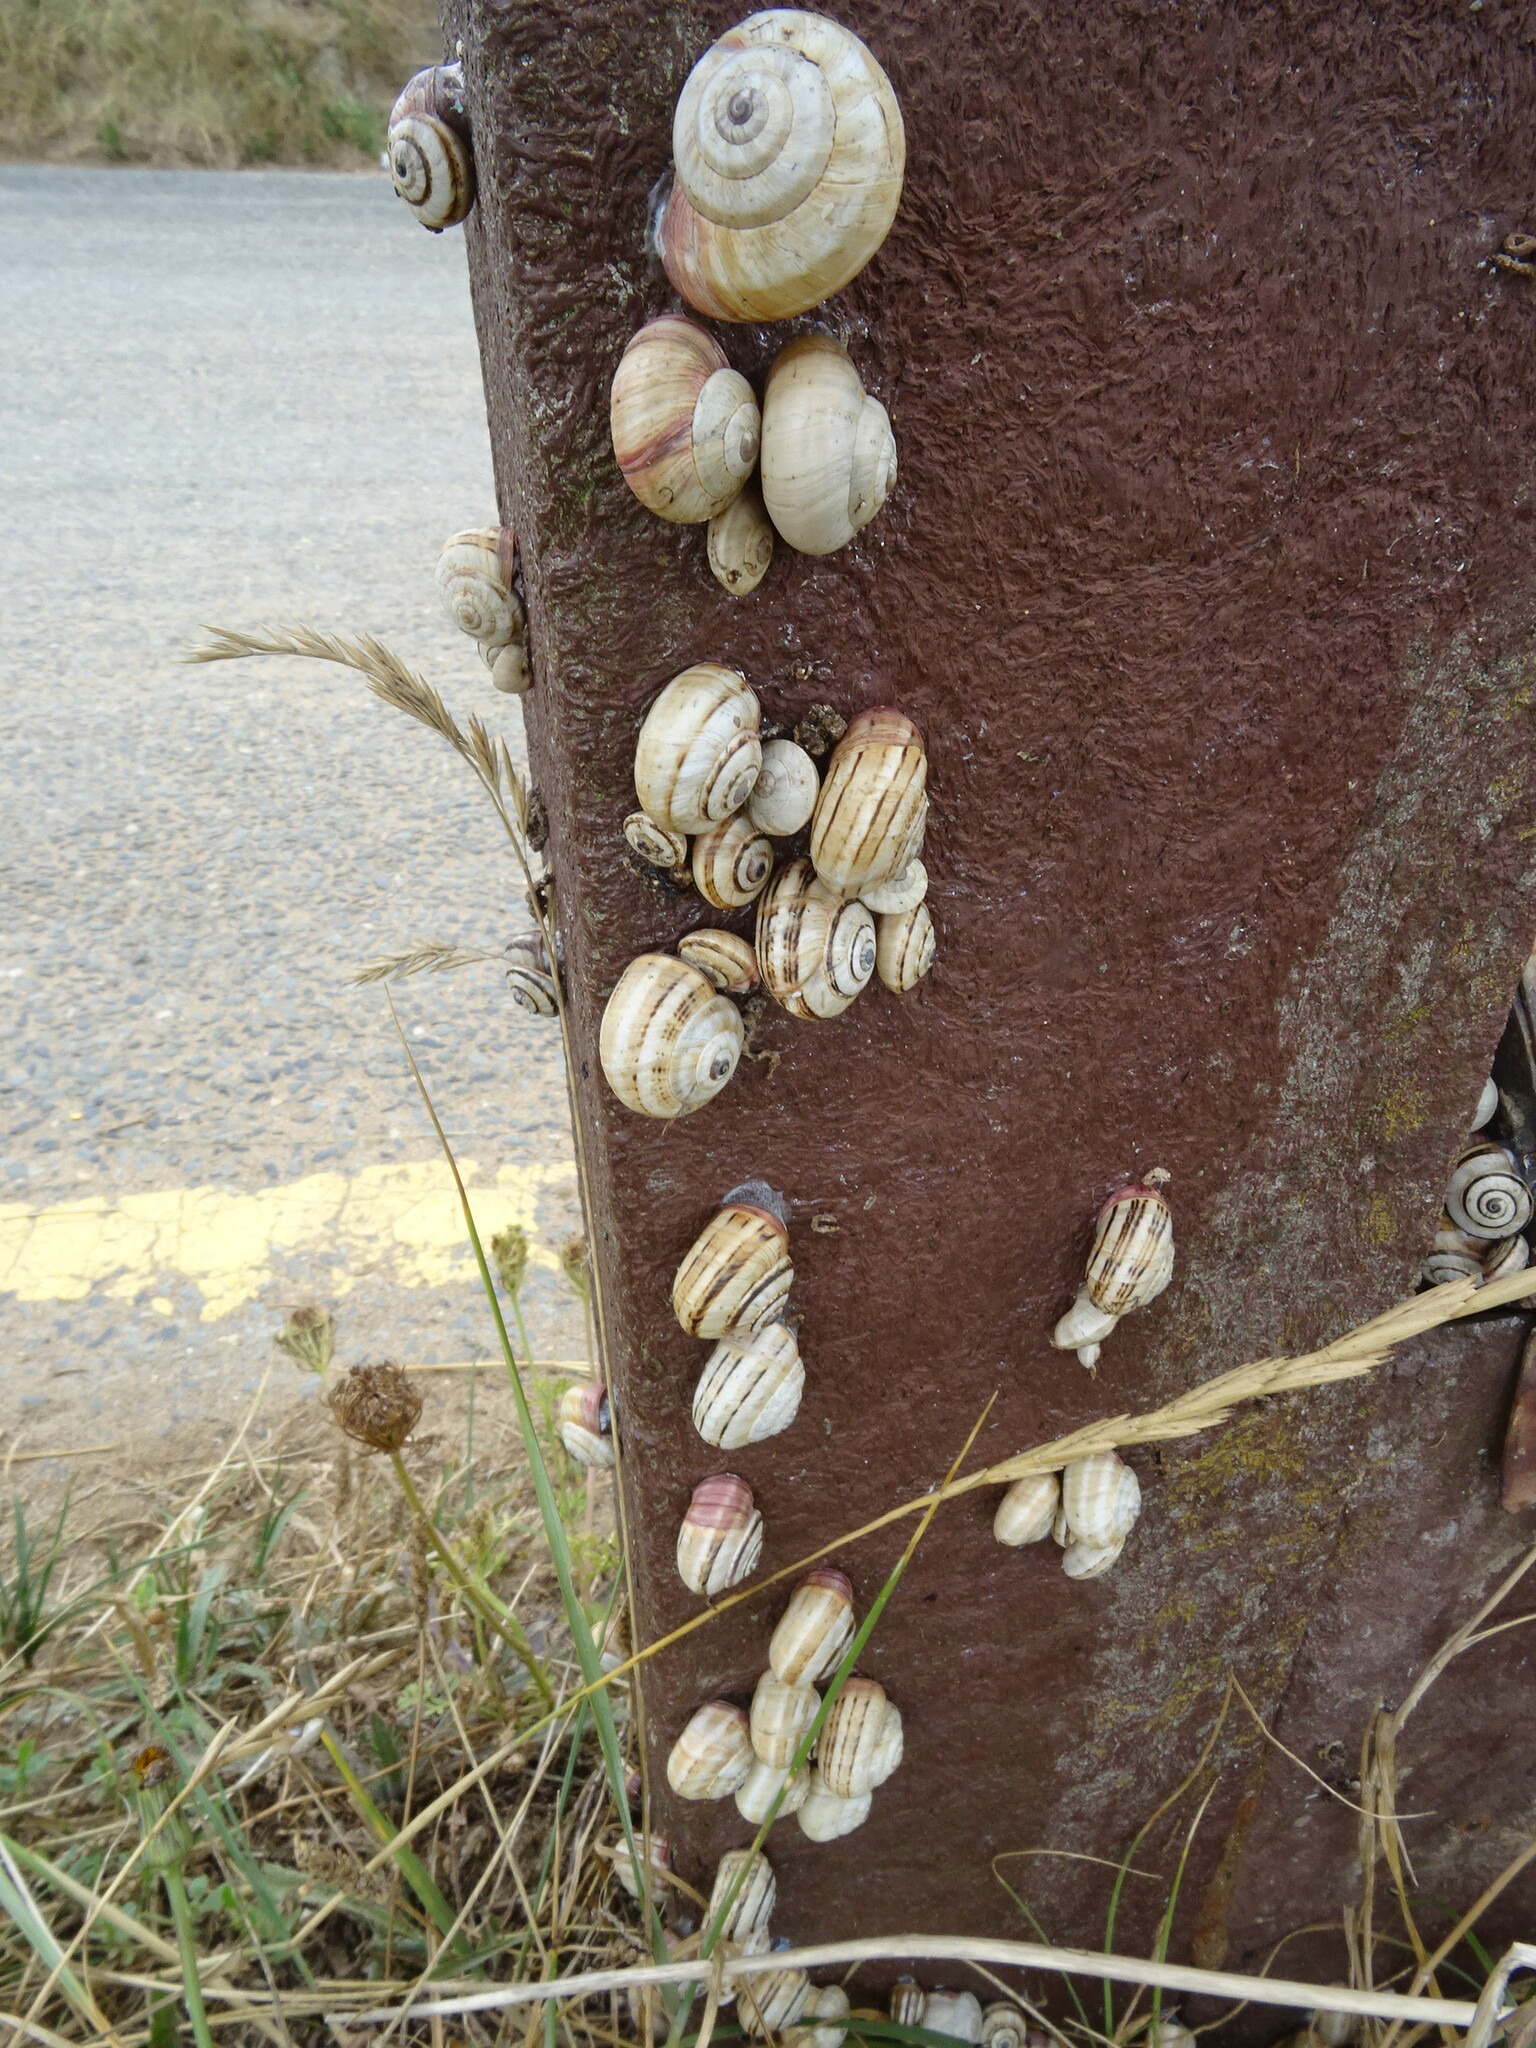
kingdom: Animalia
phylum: Mollusca
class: Gastropoda
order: Stylommatophora
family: Helicidae
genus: Theba
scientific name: Theba pisana
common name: White snail
